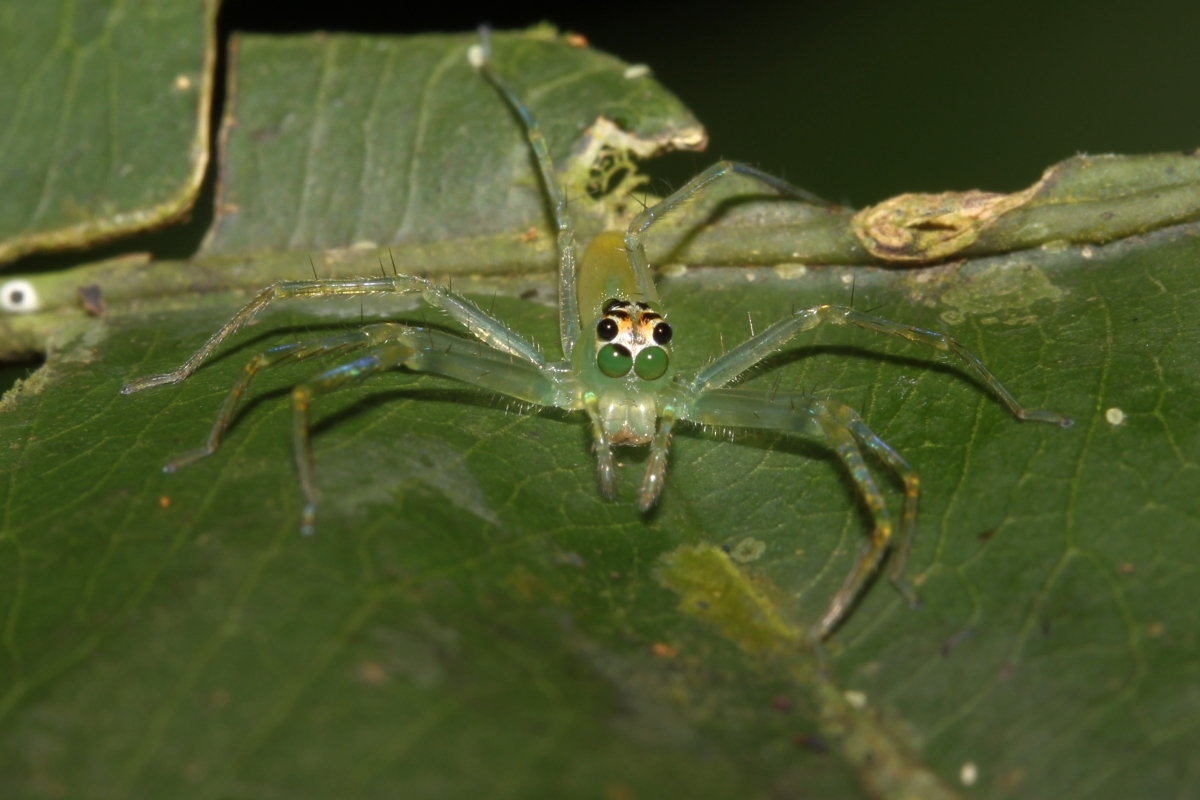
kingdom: Animalia
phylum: Arthropoda
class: Arachnida
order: Araneae
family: Salticidae
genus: Lyssomanes
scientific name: Lyssomanes
